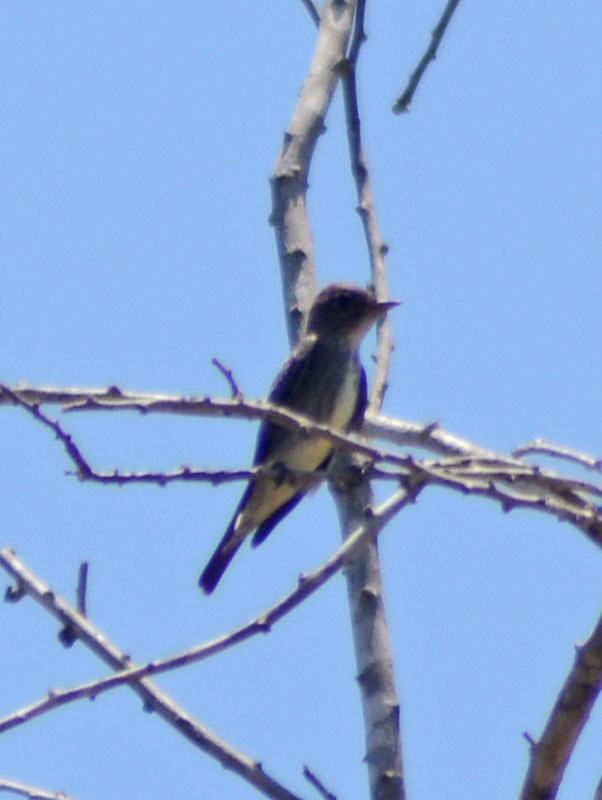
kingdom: Animalia
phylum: Chordata
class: Aves
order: Passeriformes
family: Tyrannidae
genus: Contopus
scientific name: Contopus cooperi
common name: Olive-sided flycatcher
